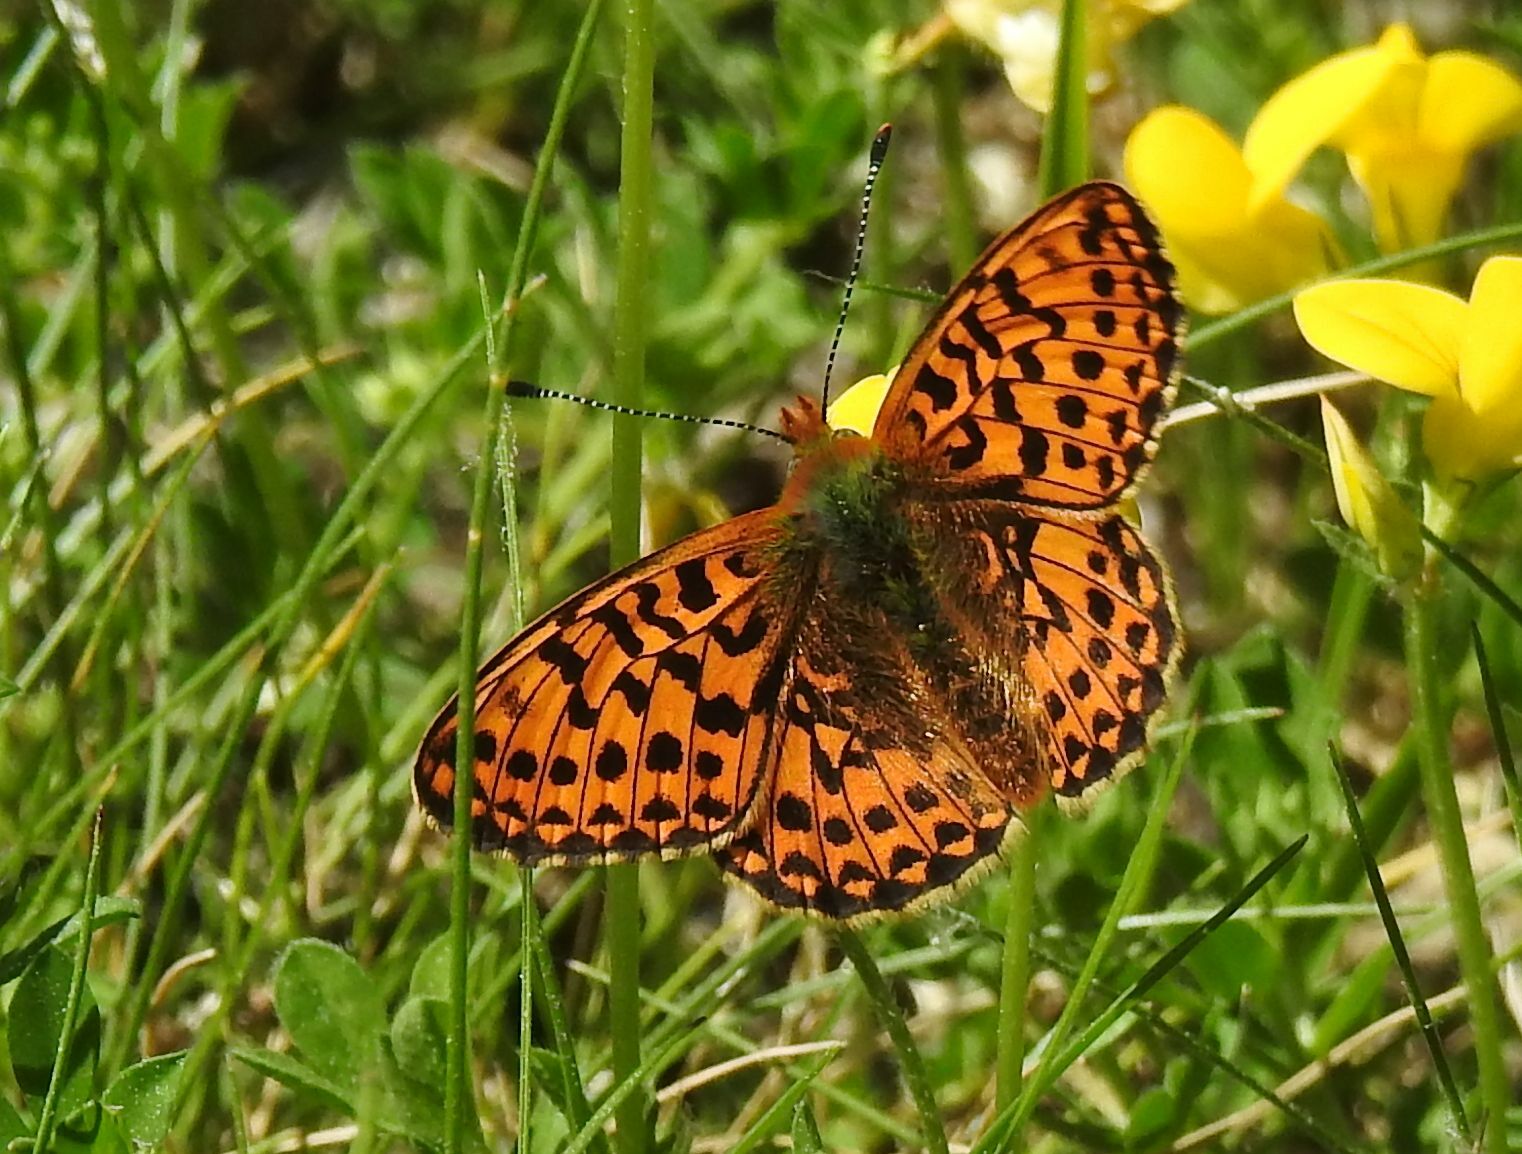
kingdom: Animalia
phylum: Arthropoda
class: Insecta
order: Lepidoptera
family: Nymphalidae
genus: Clossiana
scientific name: Clossiana euphrosyne
